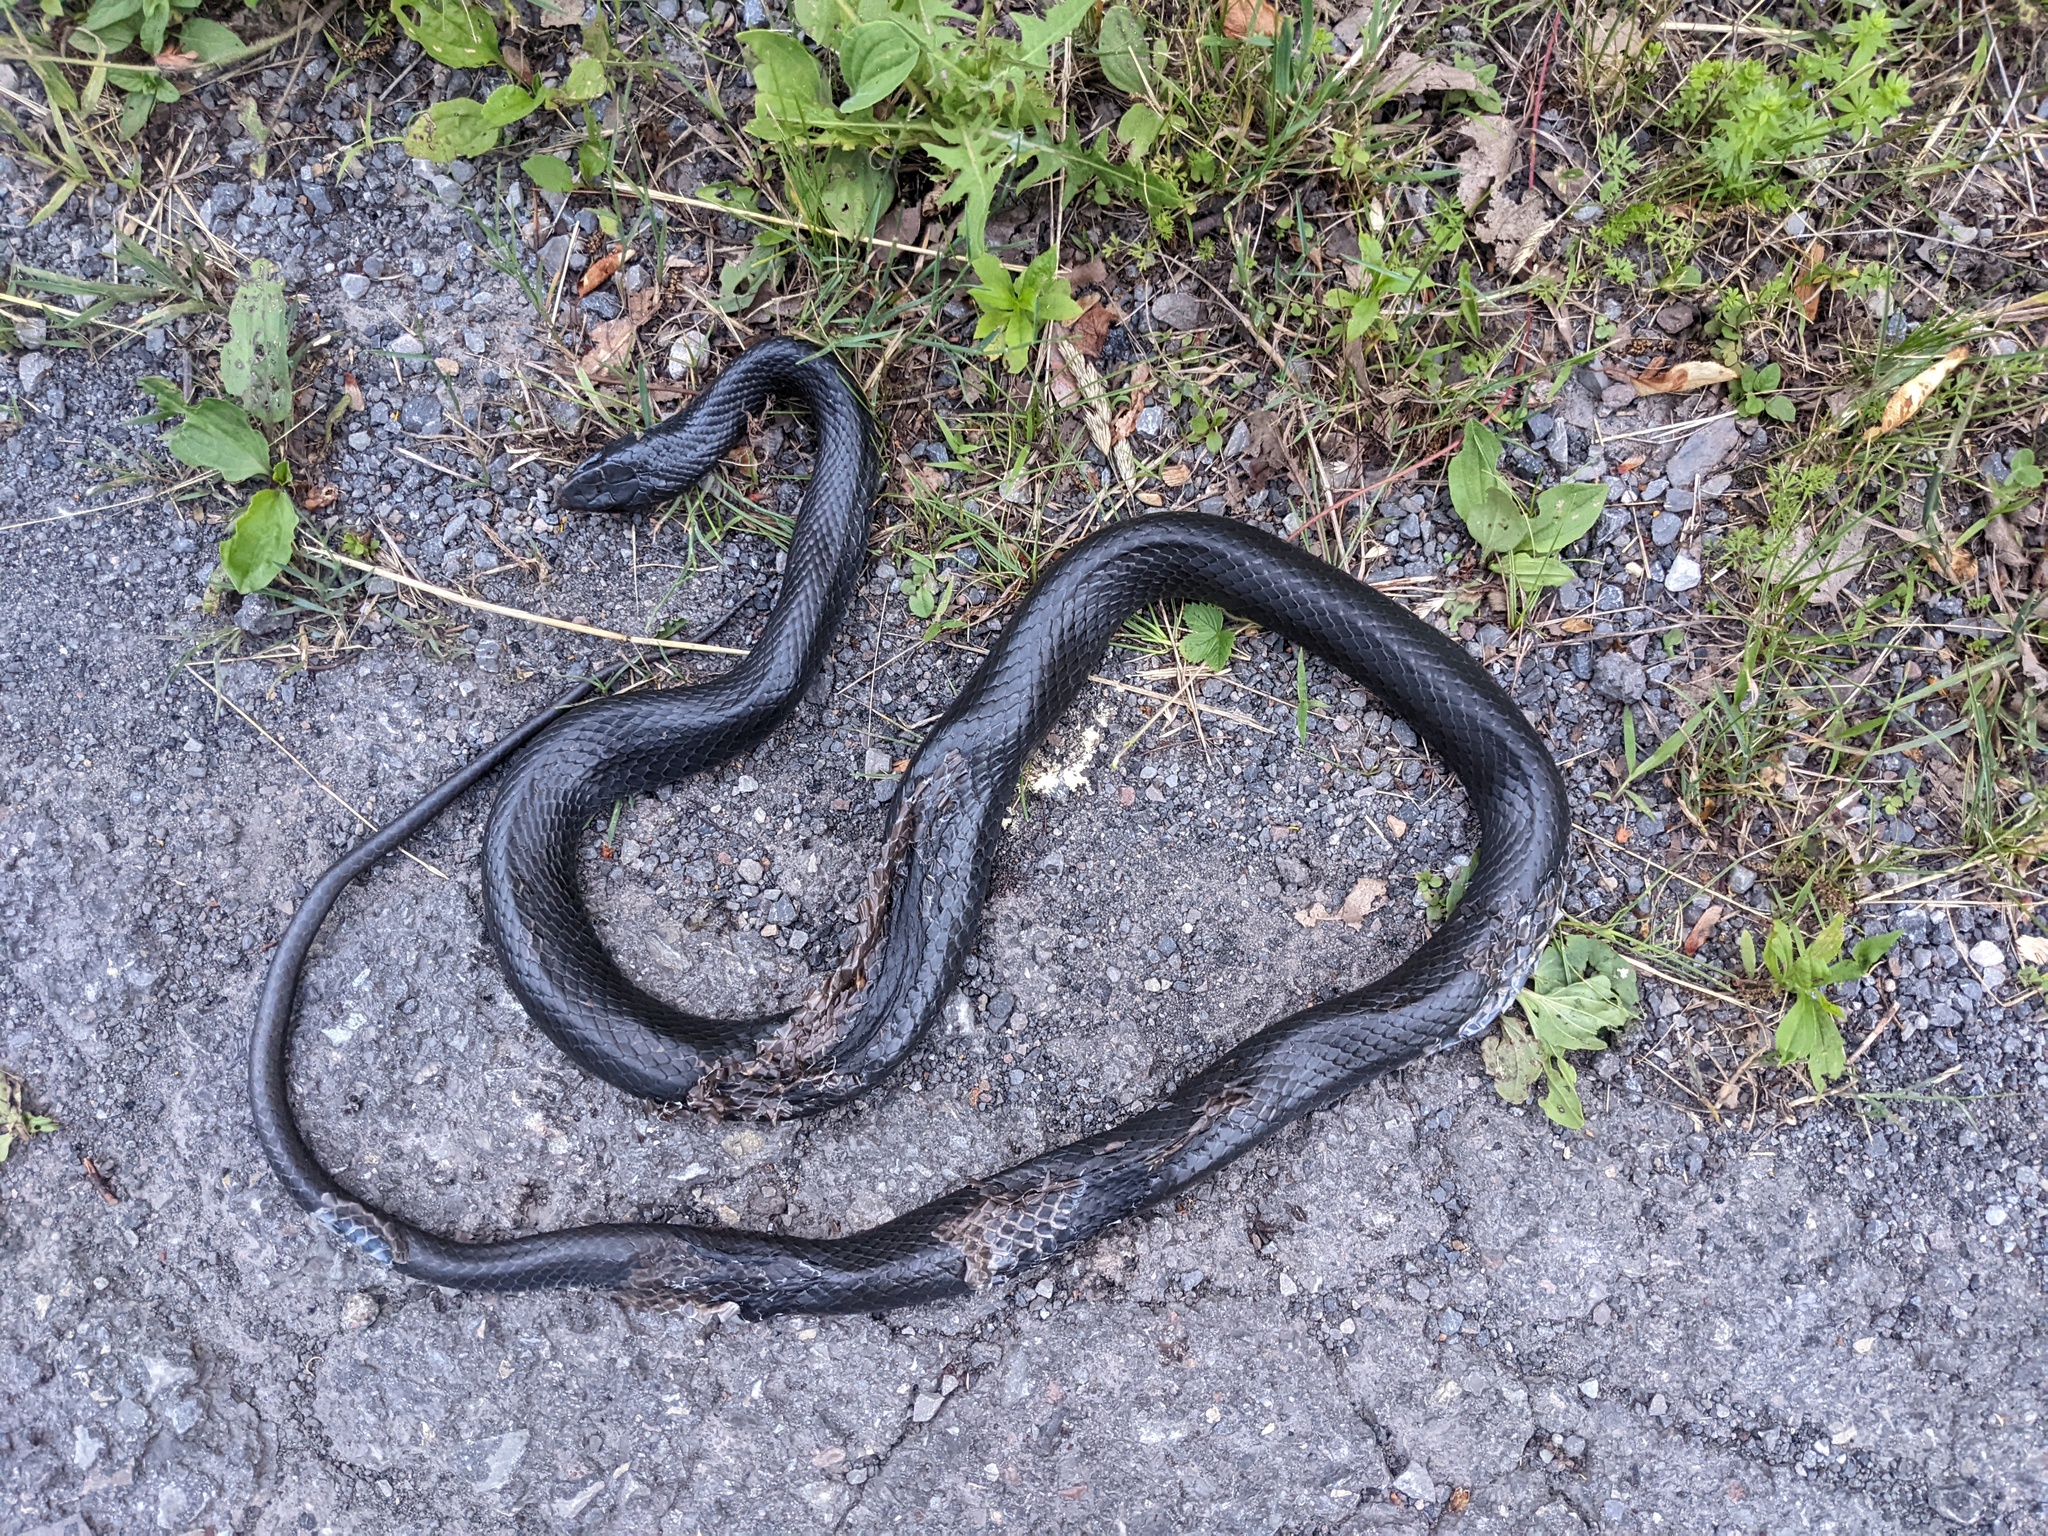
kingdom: Animalia
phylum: Chordata
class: Squamata
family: Colubridae
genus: Coluber
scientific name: Coluber constrictor
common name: Eastern racer
